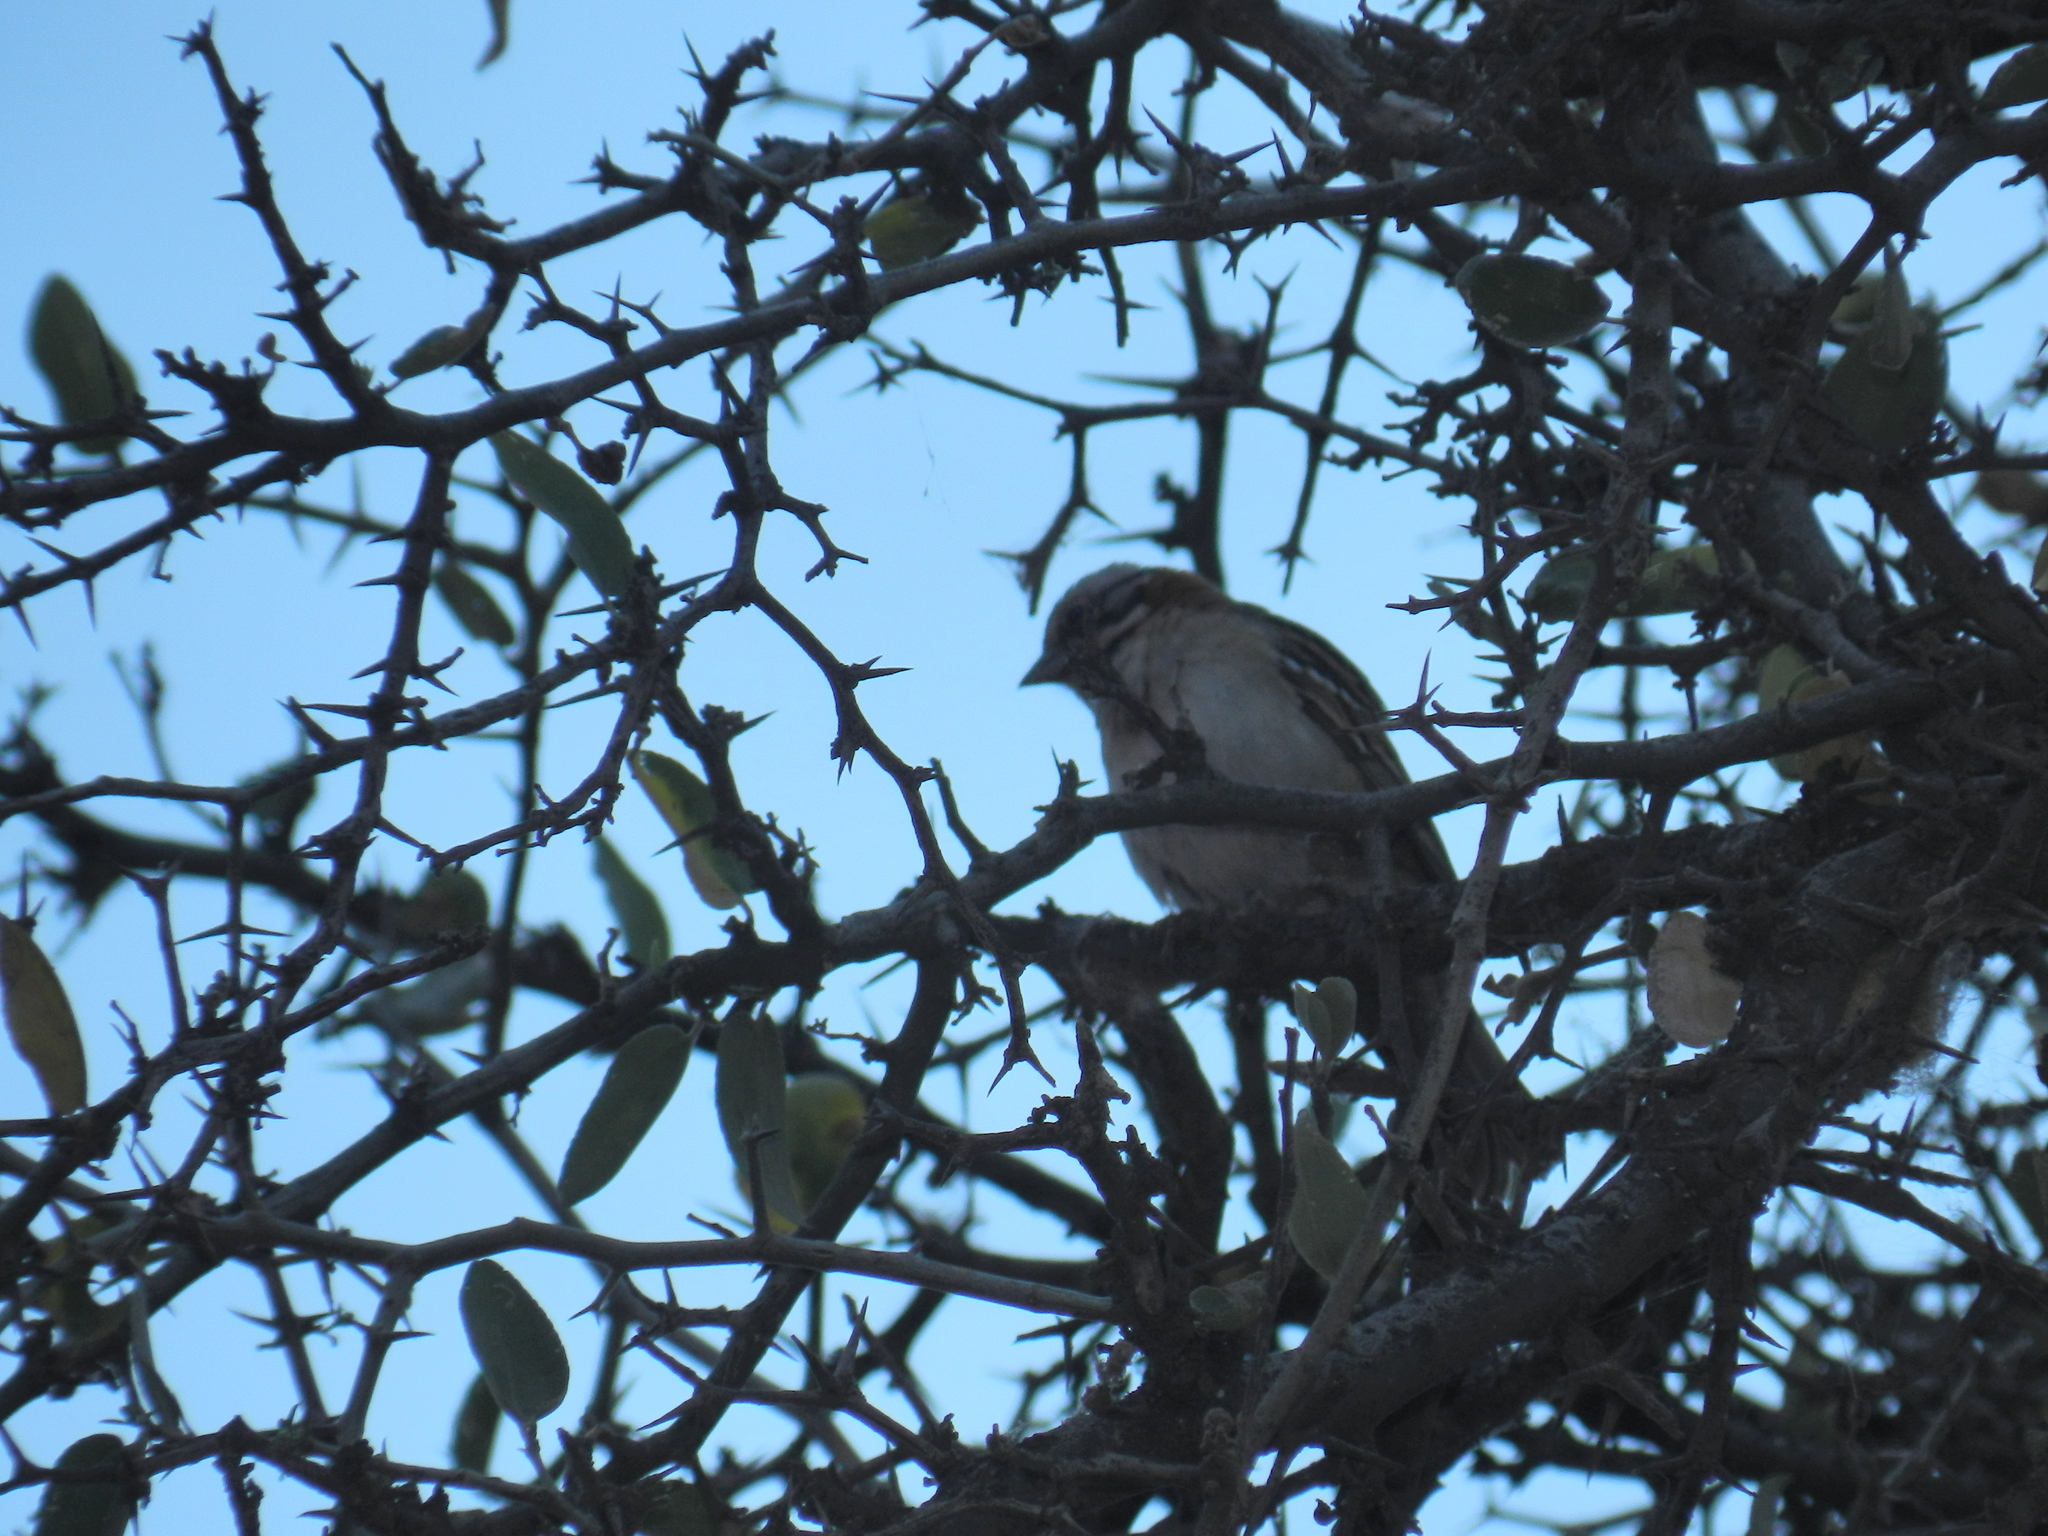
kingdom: Animalia
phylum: Chordata
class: Aves
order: Passeriformes
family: Passerellidae
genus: Zonotrichia
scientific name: Zonotrichia capensis
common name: Rufous-collared sparrow
